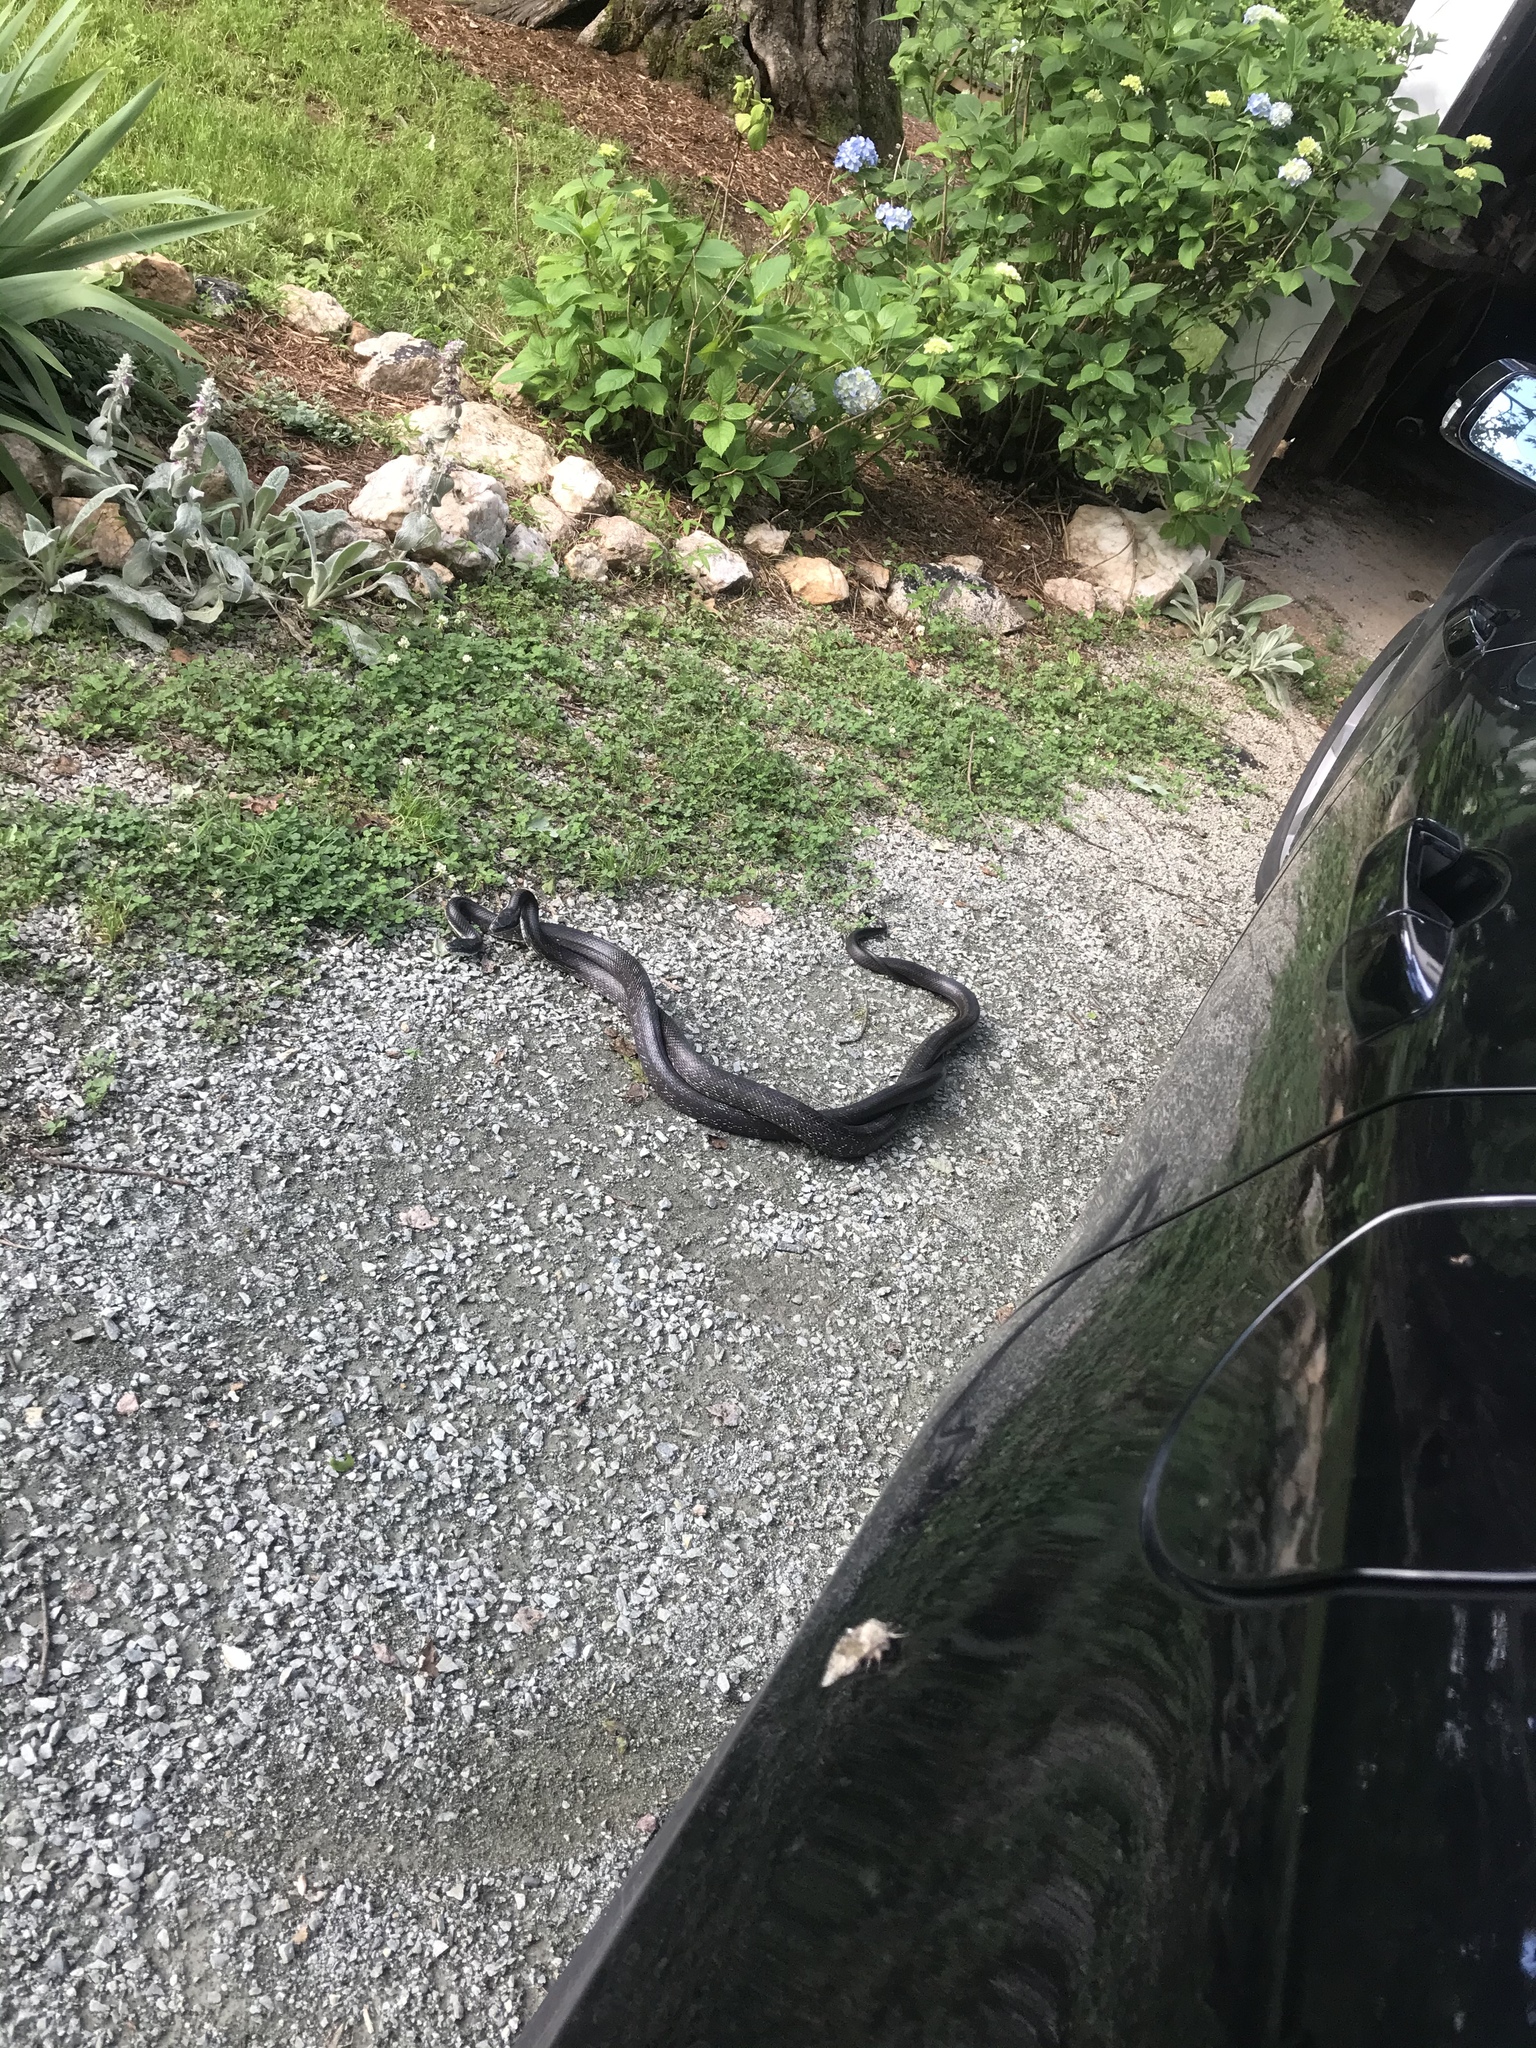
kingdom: Animalia
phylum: Chordata
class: Squamata
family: Colubridae
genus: Pantherophis
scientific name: Pantherophis alleghaniensis
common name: Eastern rat snake
